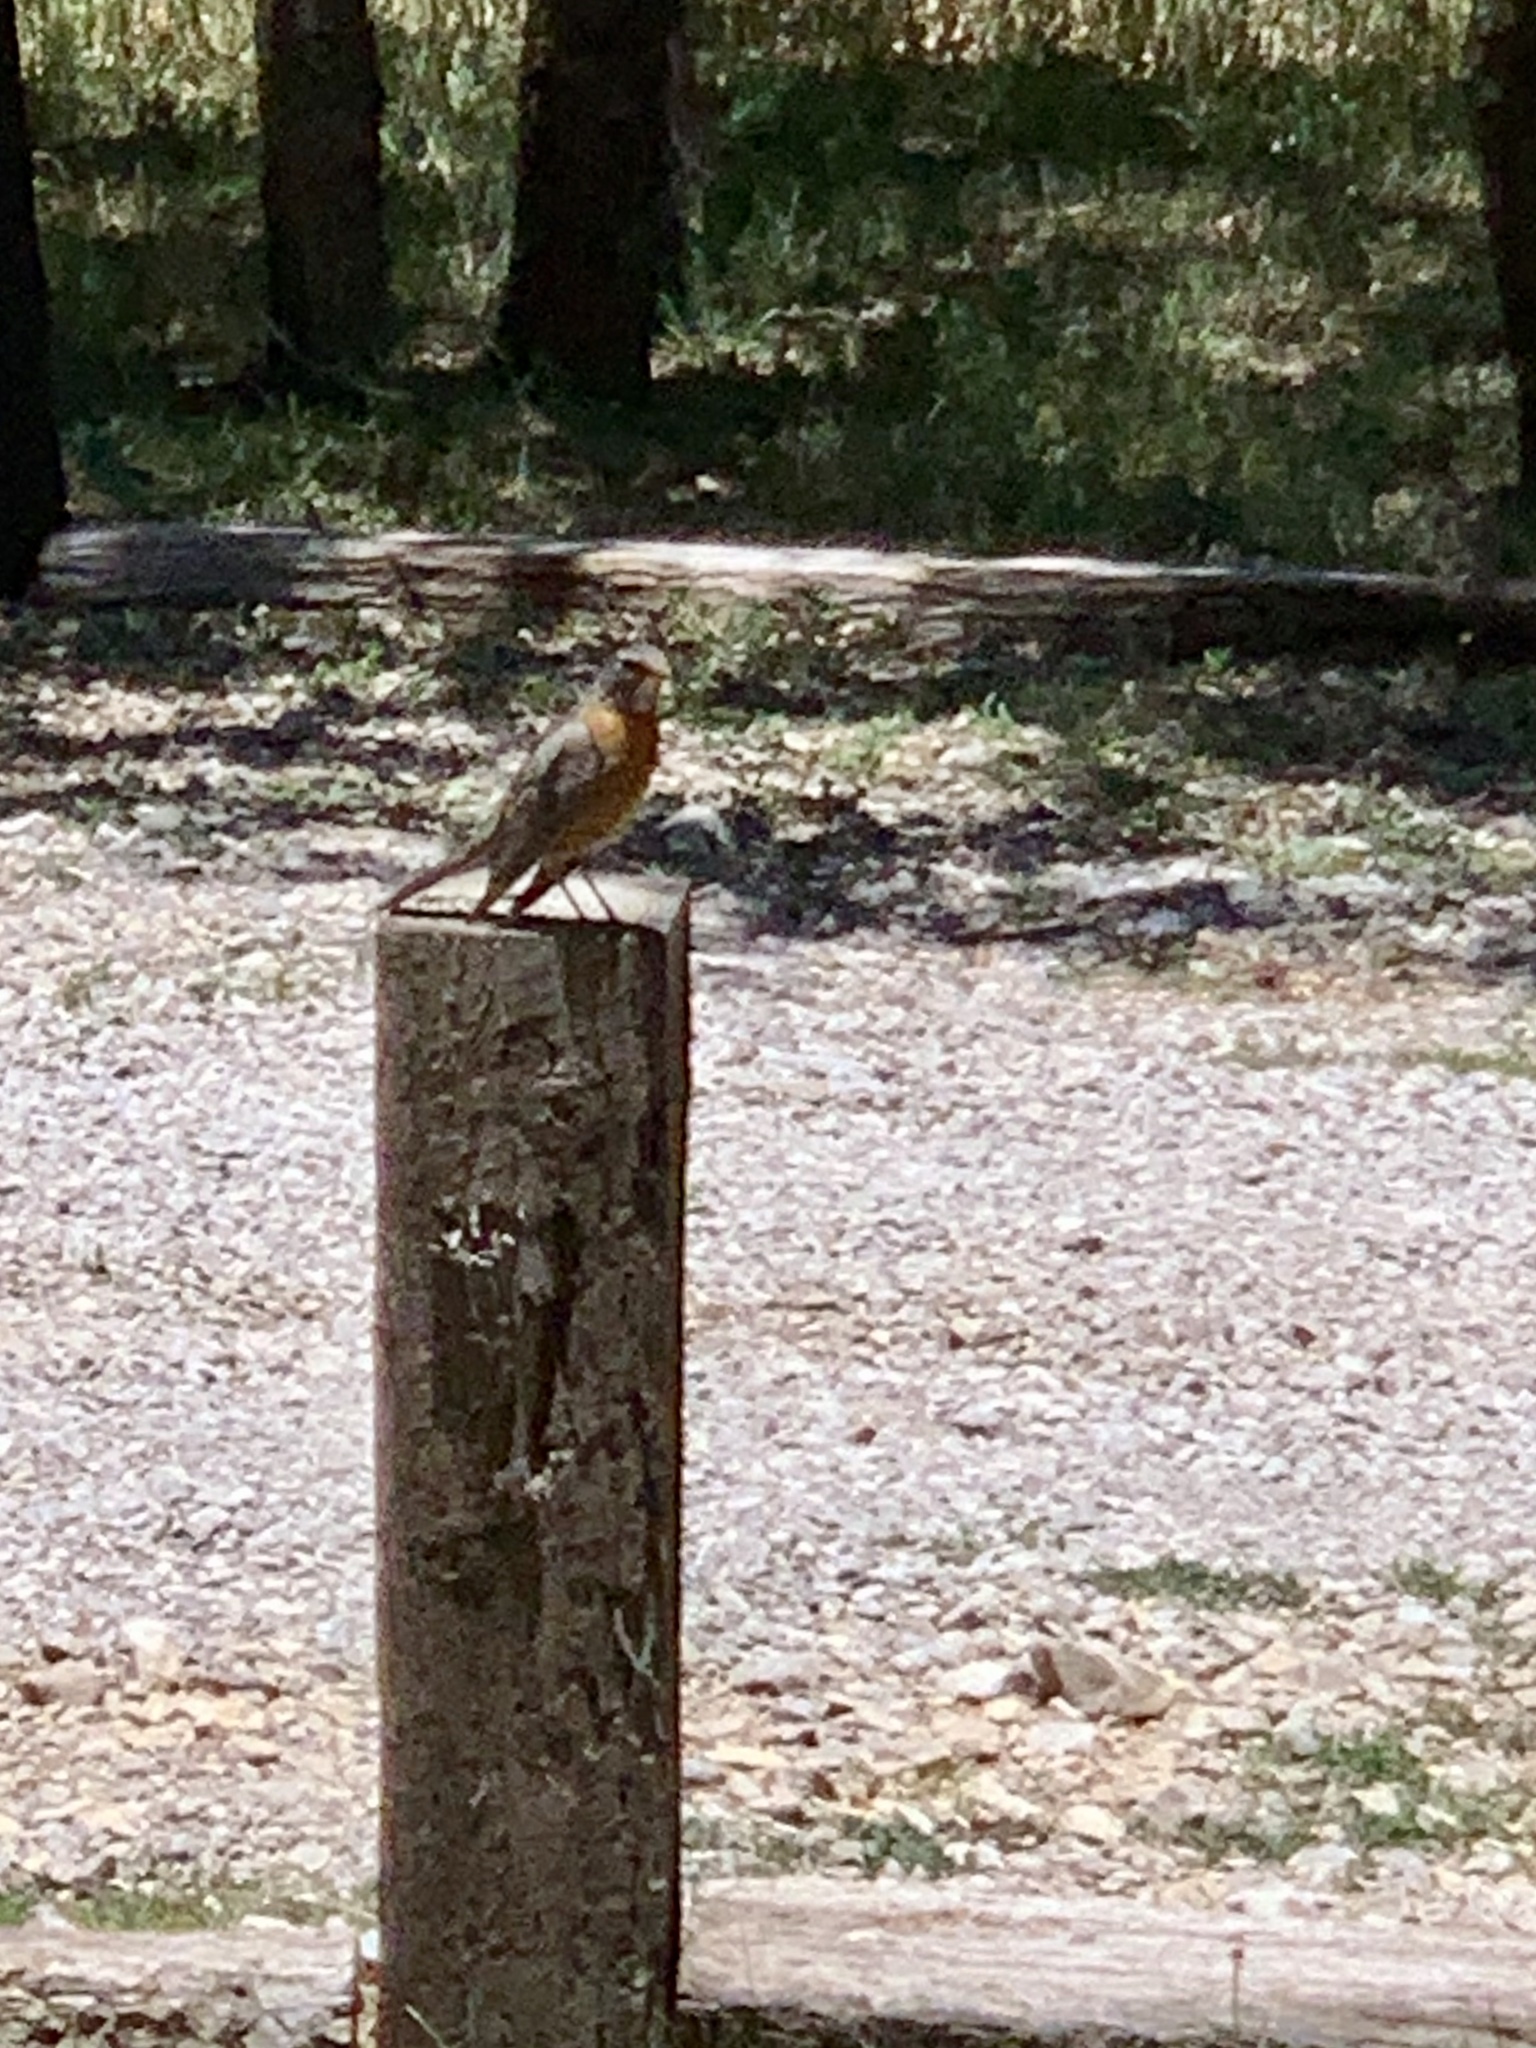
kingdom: Animalia
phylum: Chordata
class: Aves
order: Passeriformes
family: Turdidae
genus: Turdus
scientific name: Turdus migratorius
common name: American robin
